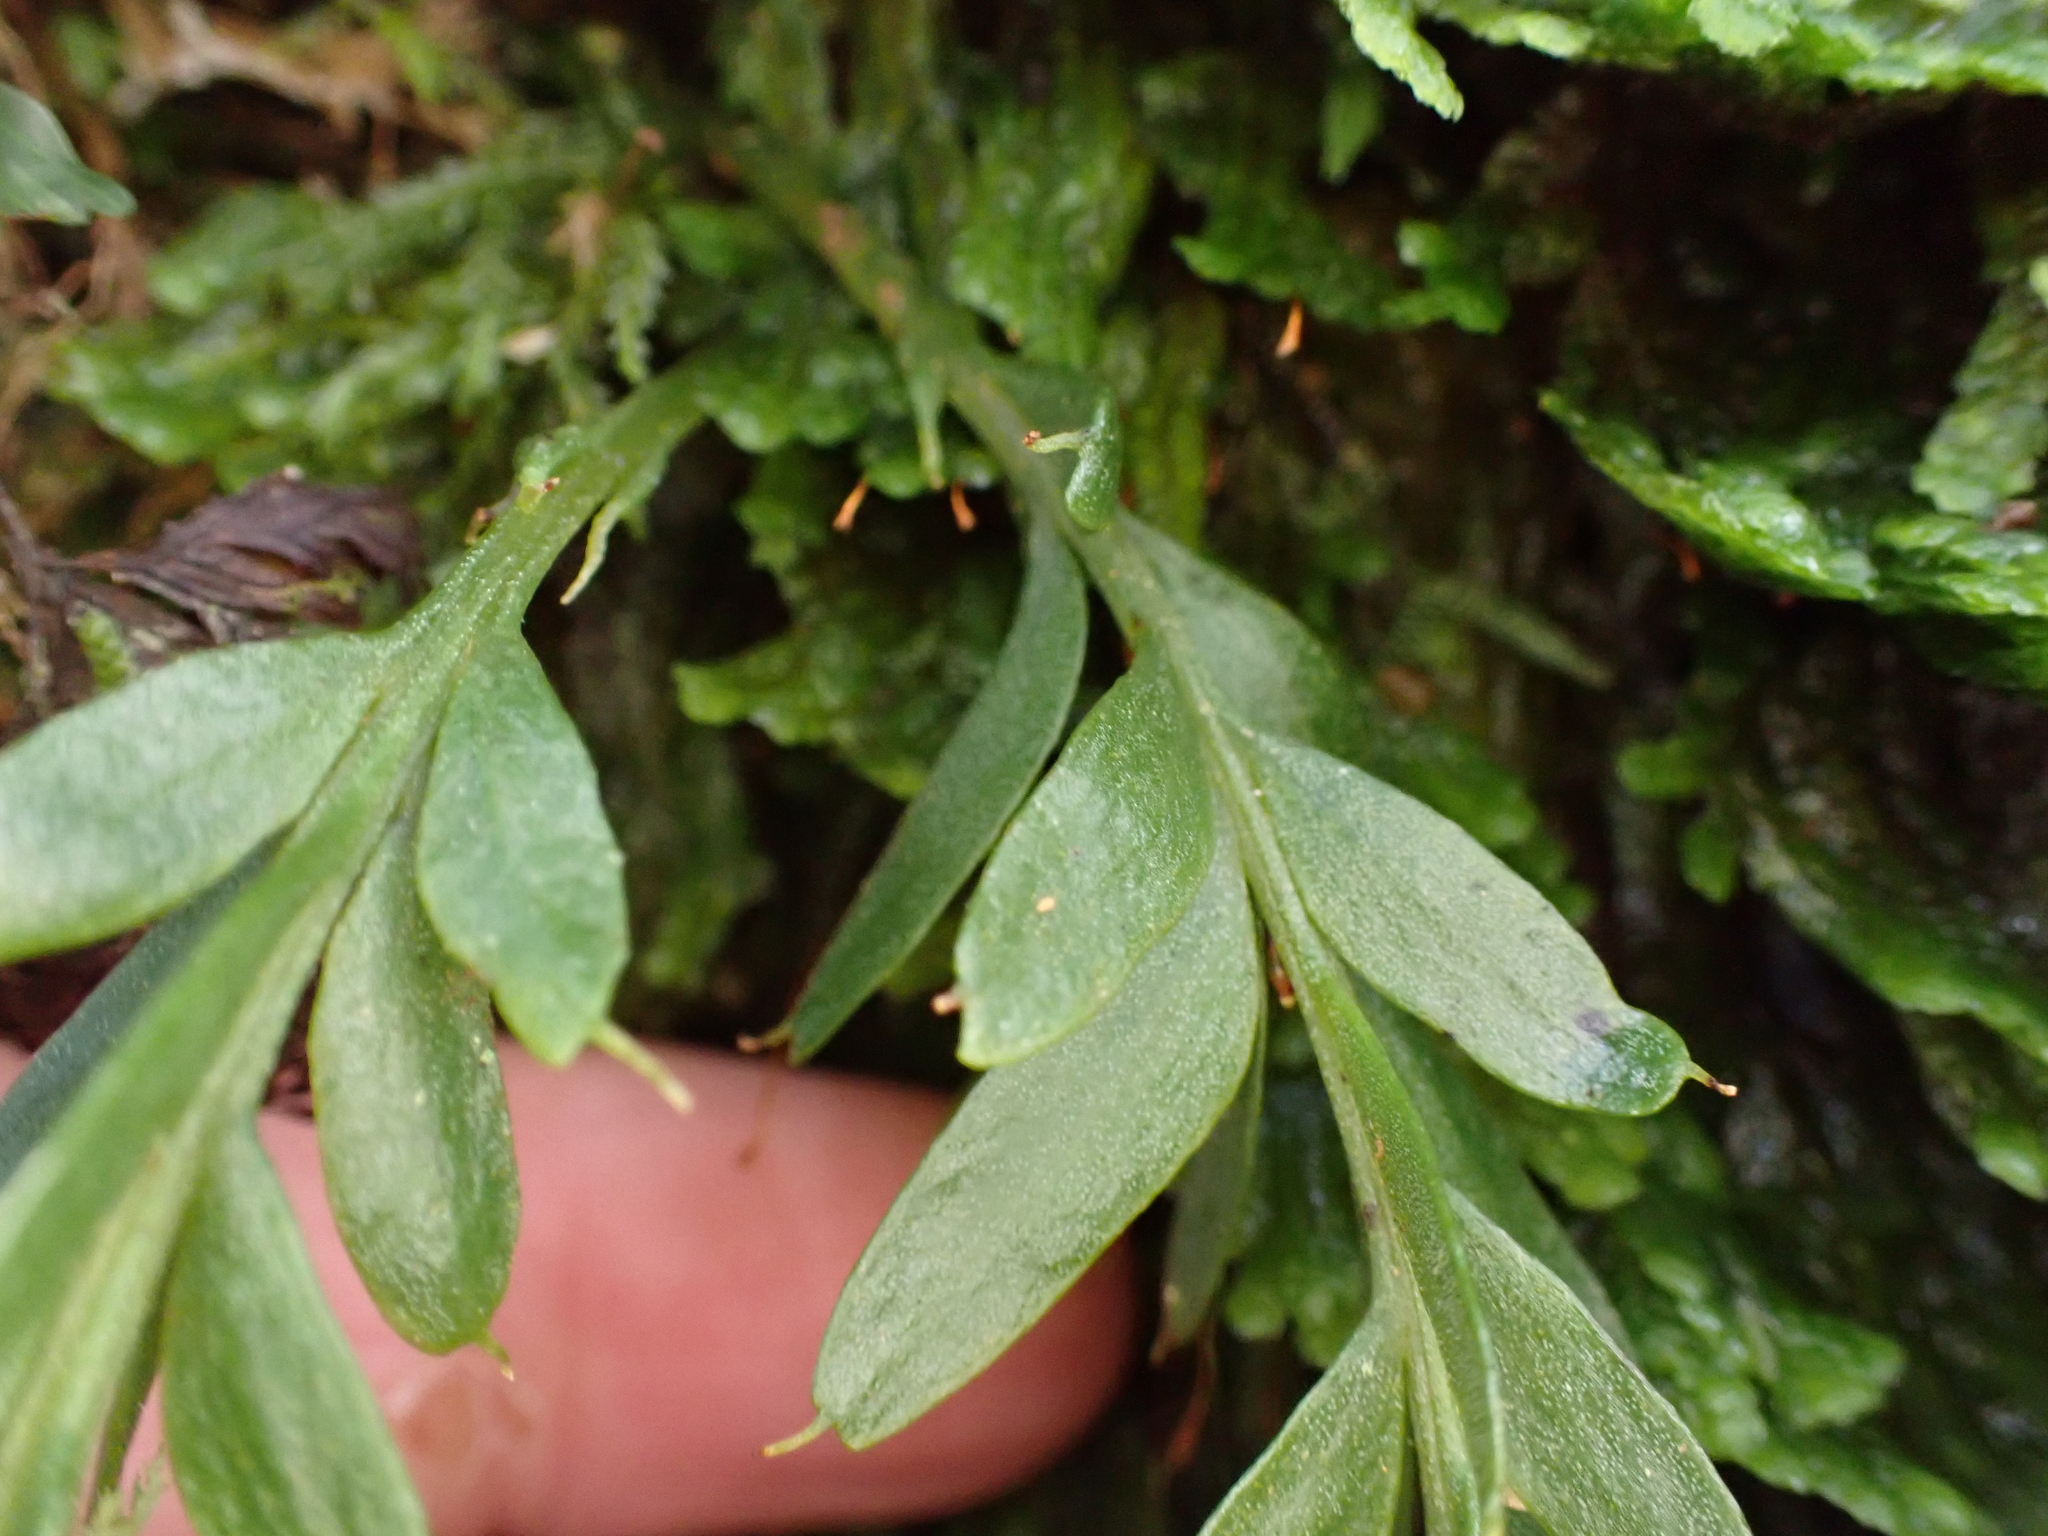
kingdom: Plantae
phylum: Tracheophyta
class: Polypodiopsida
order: Psilotales
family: Psilotaceae
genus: Tmesipteris
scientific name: Tmesipteris tannensis
